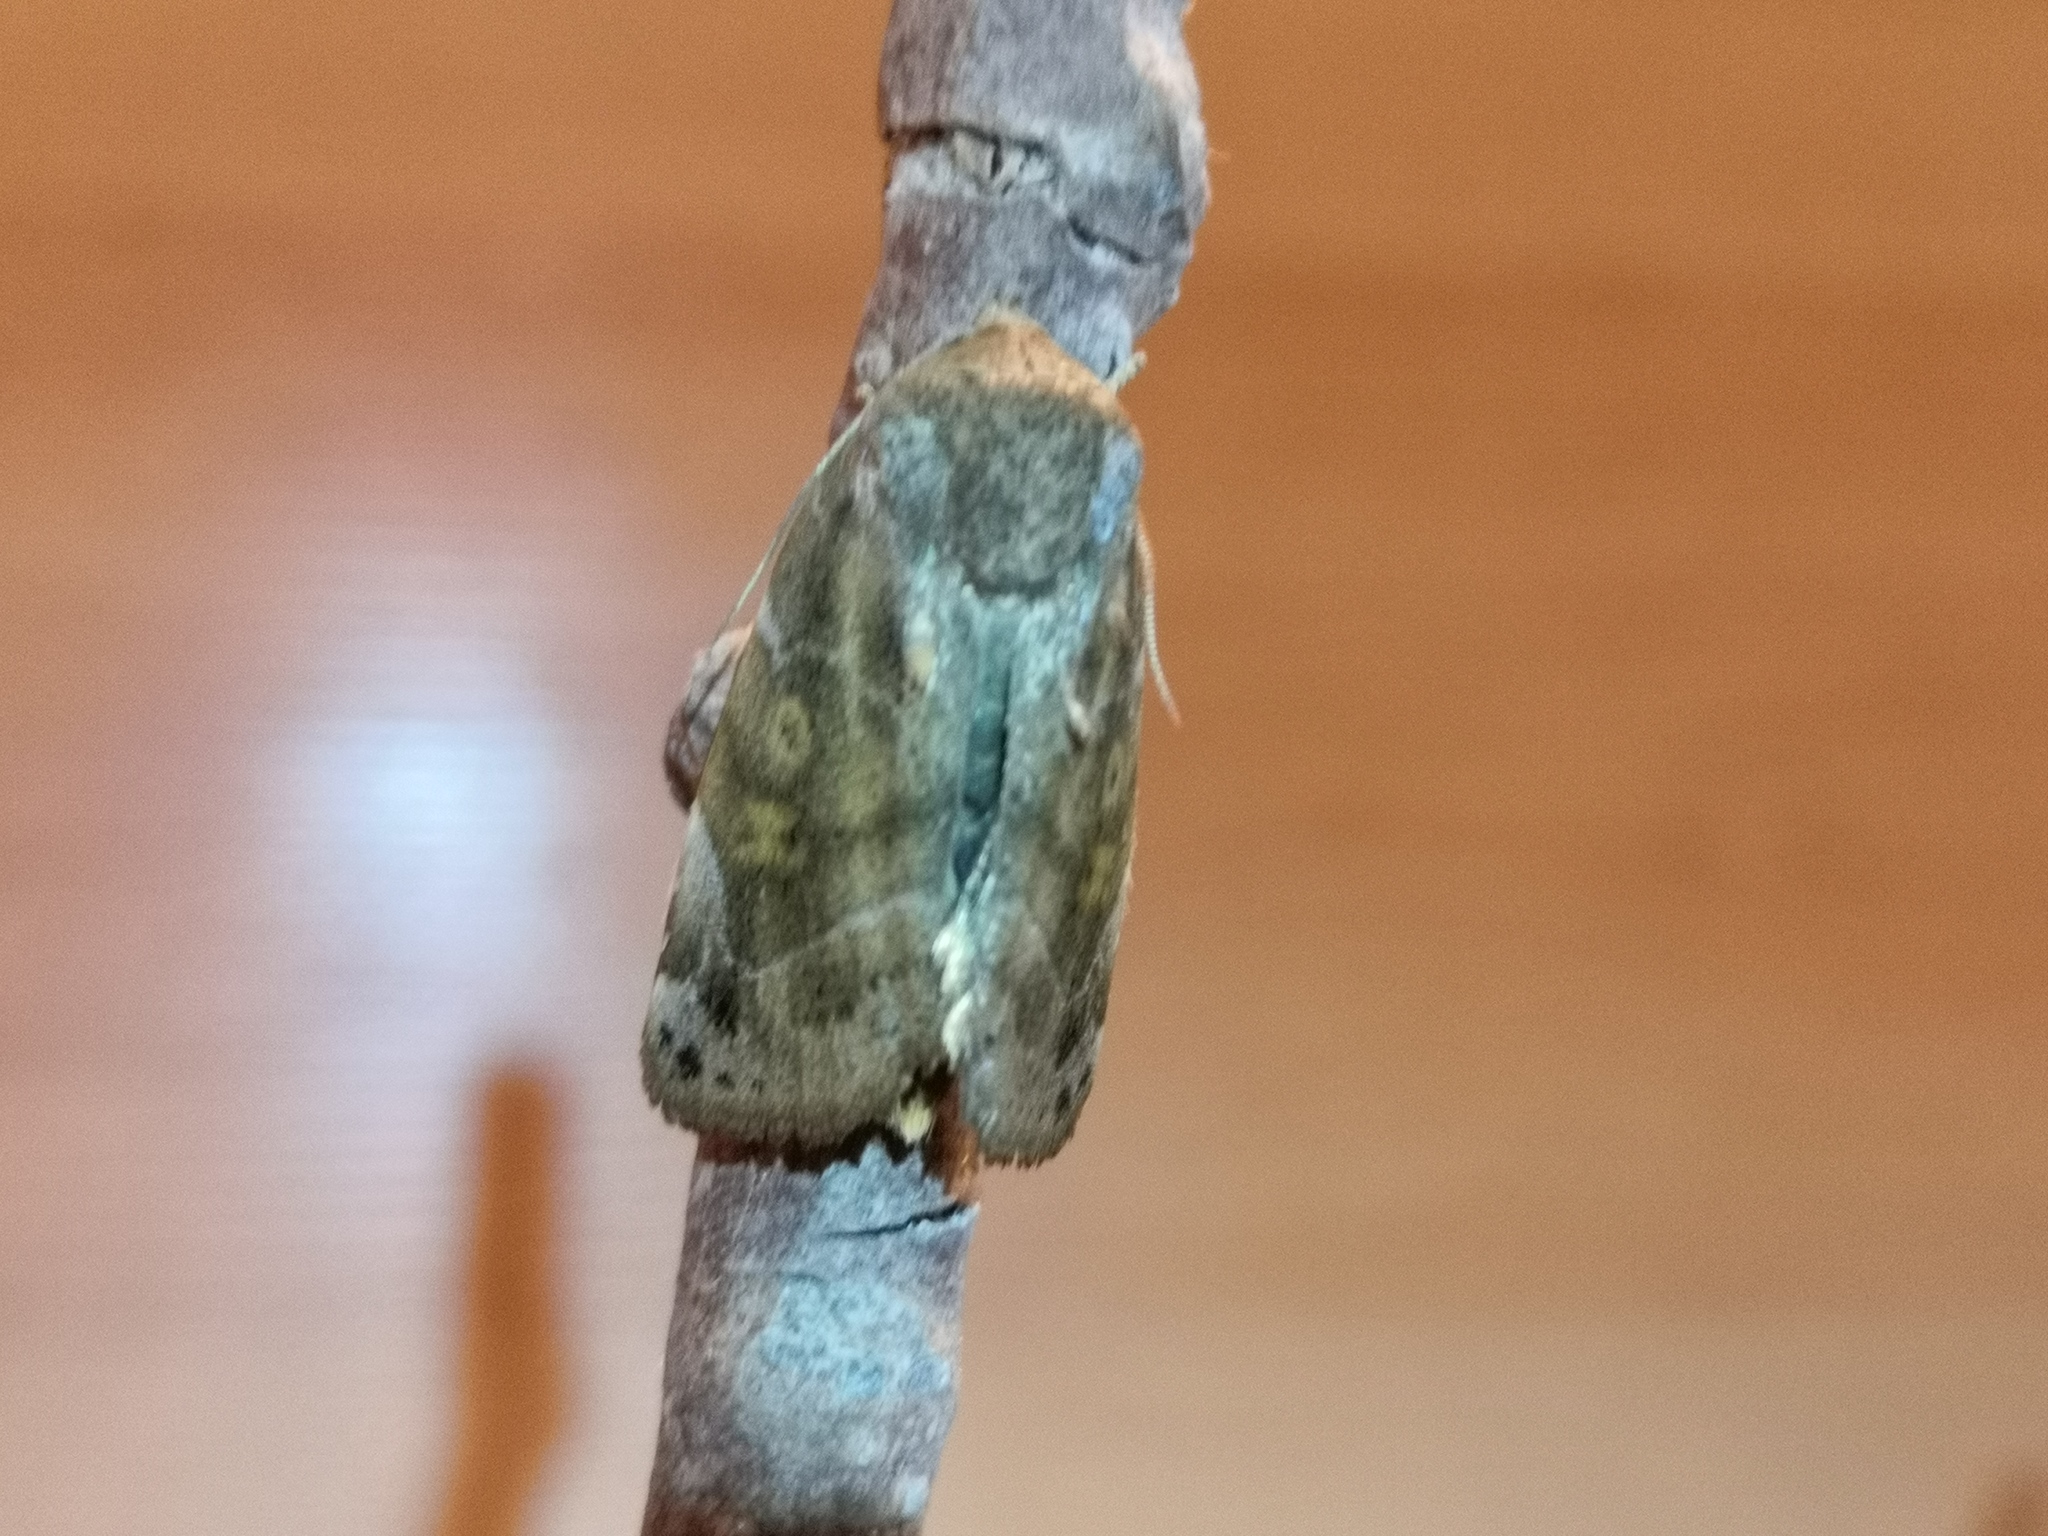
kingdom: Animalia
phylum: Arthropoda
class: Insecta
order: Lepidoptera
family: Noctuidae
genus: Cosmia
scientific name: Cosmia affinis
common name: Lesser-spotted pinion
